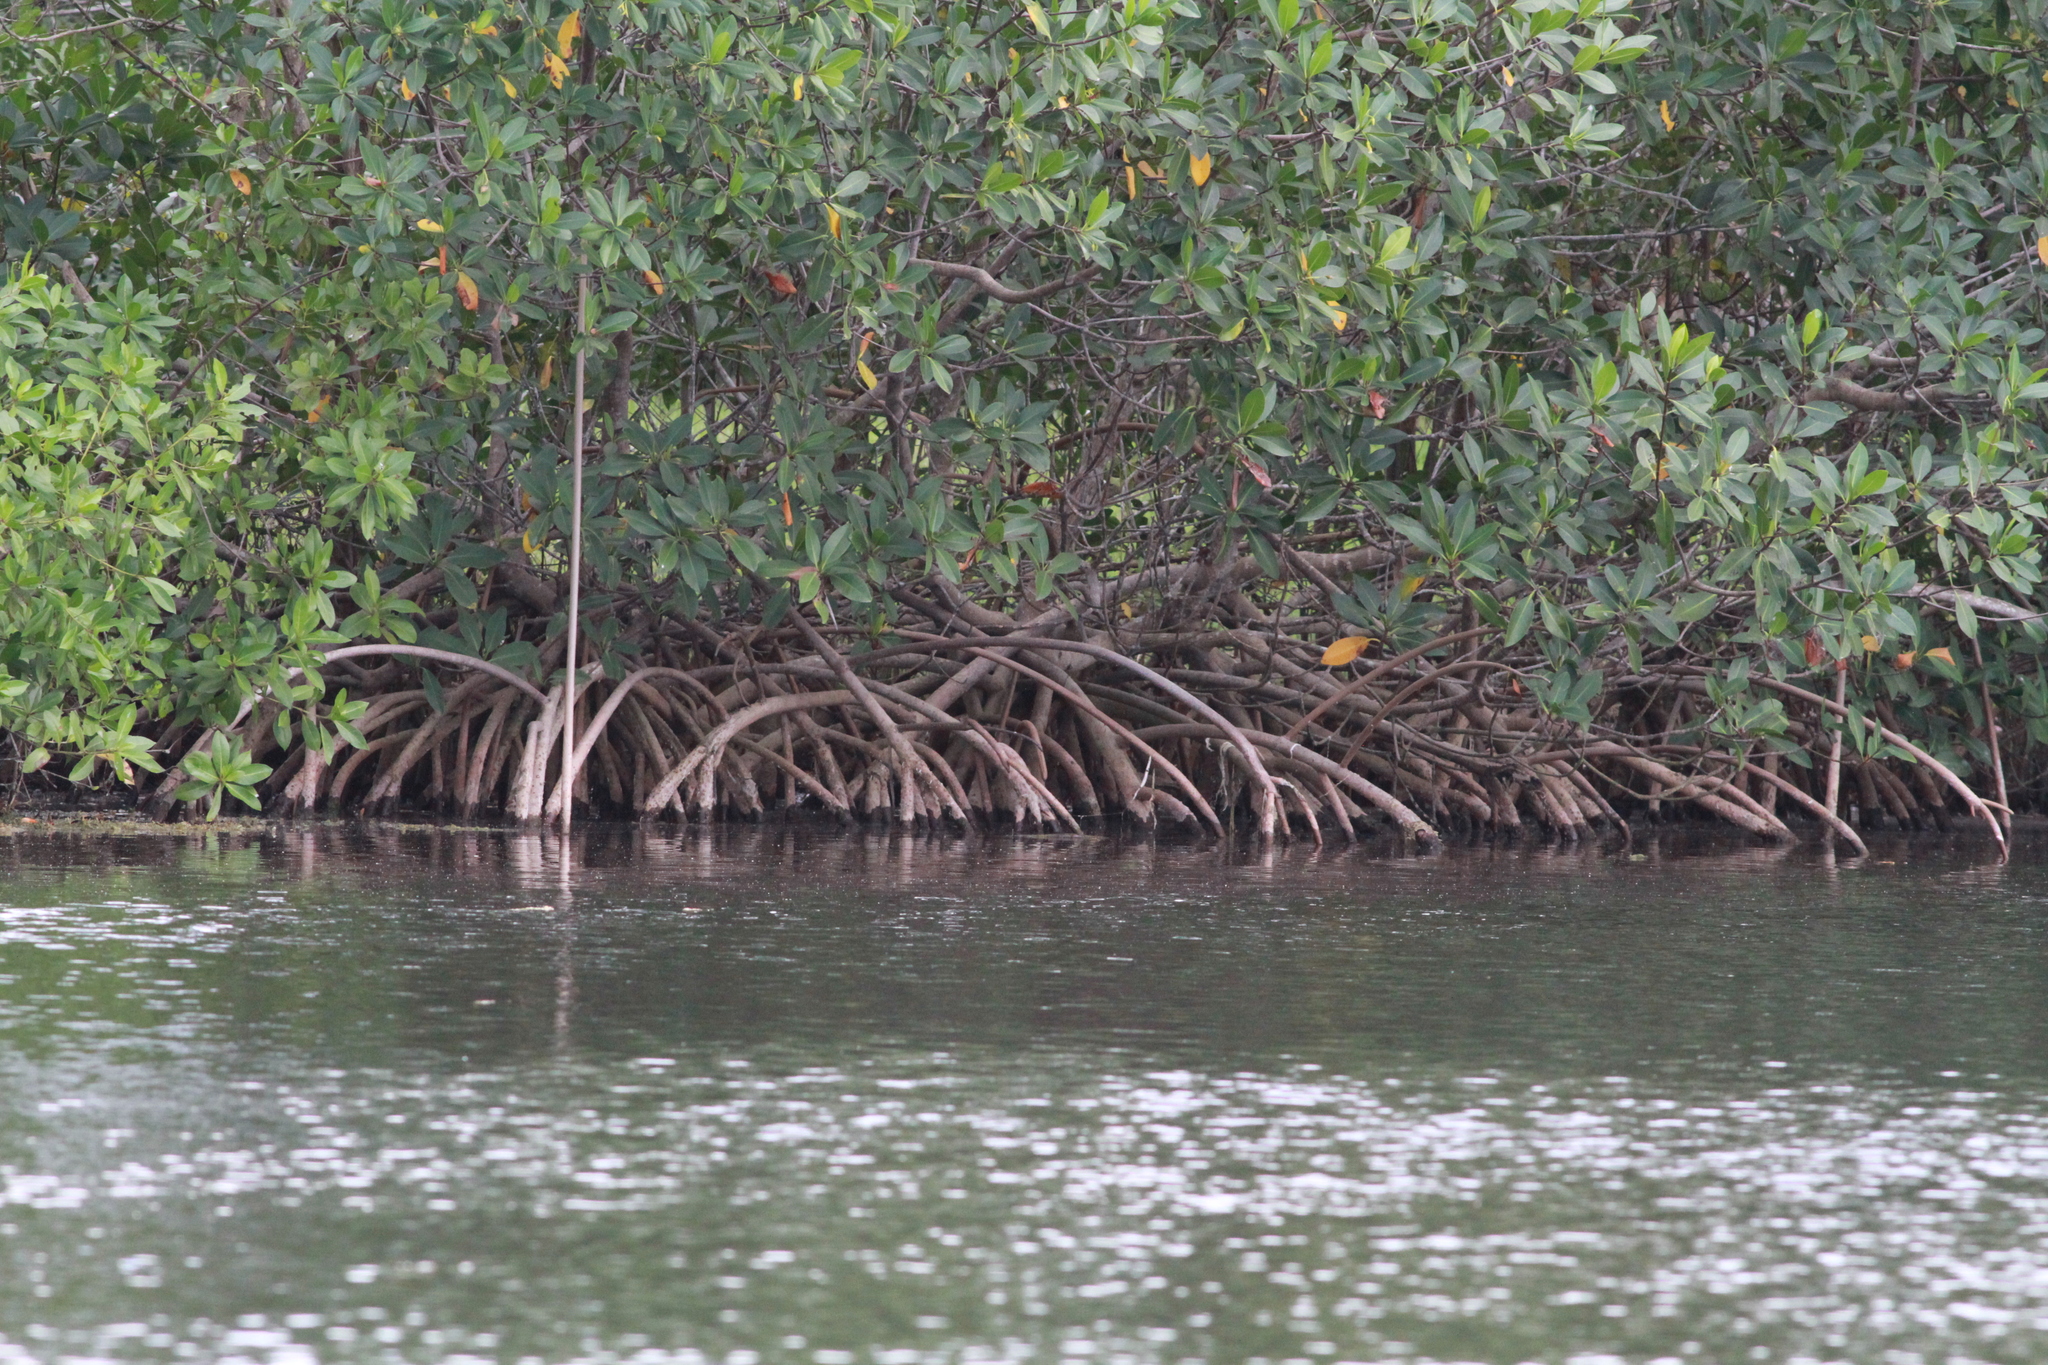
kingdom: Plantae
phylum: Tracheophyta
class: Magnoliopsida
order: Malpighiales
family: Rhizophoraceae
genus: Rhizophora
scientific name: Rhizophora mangle
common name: Red mangrove
